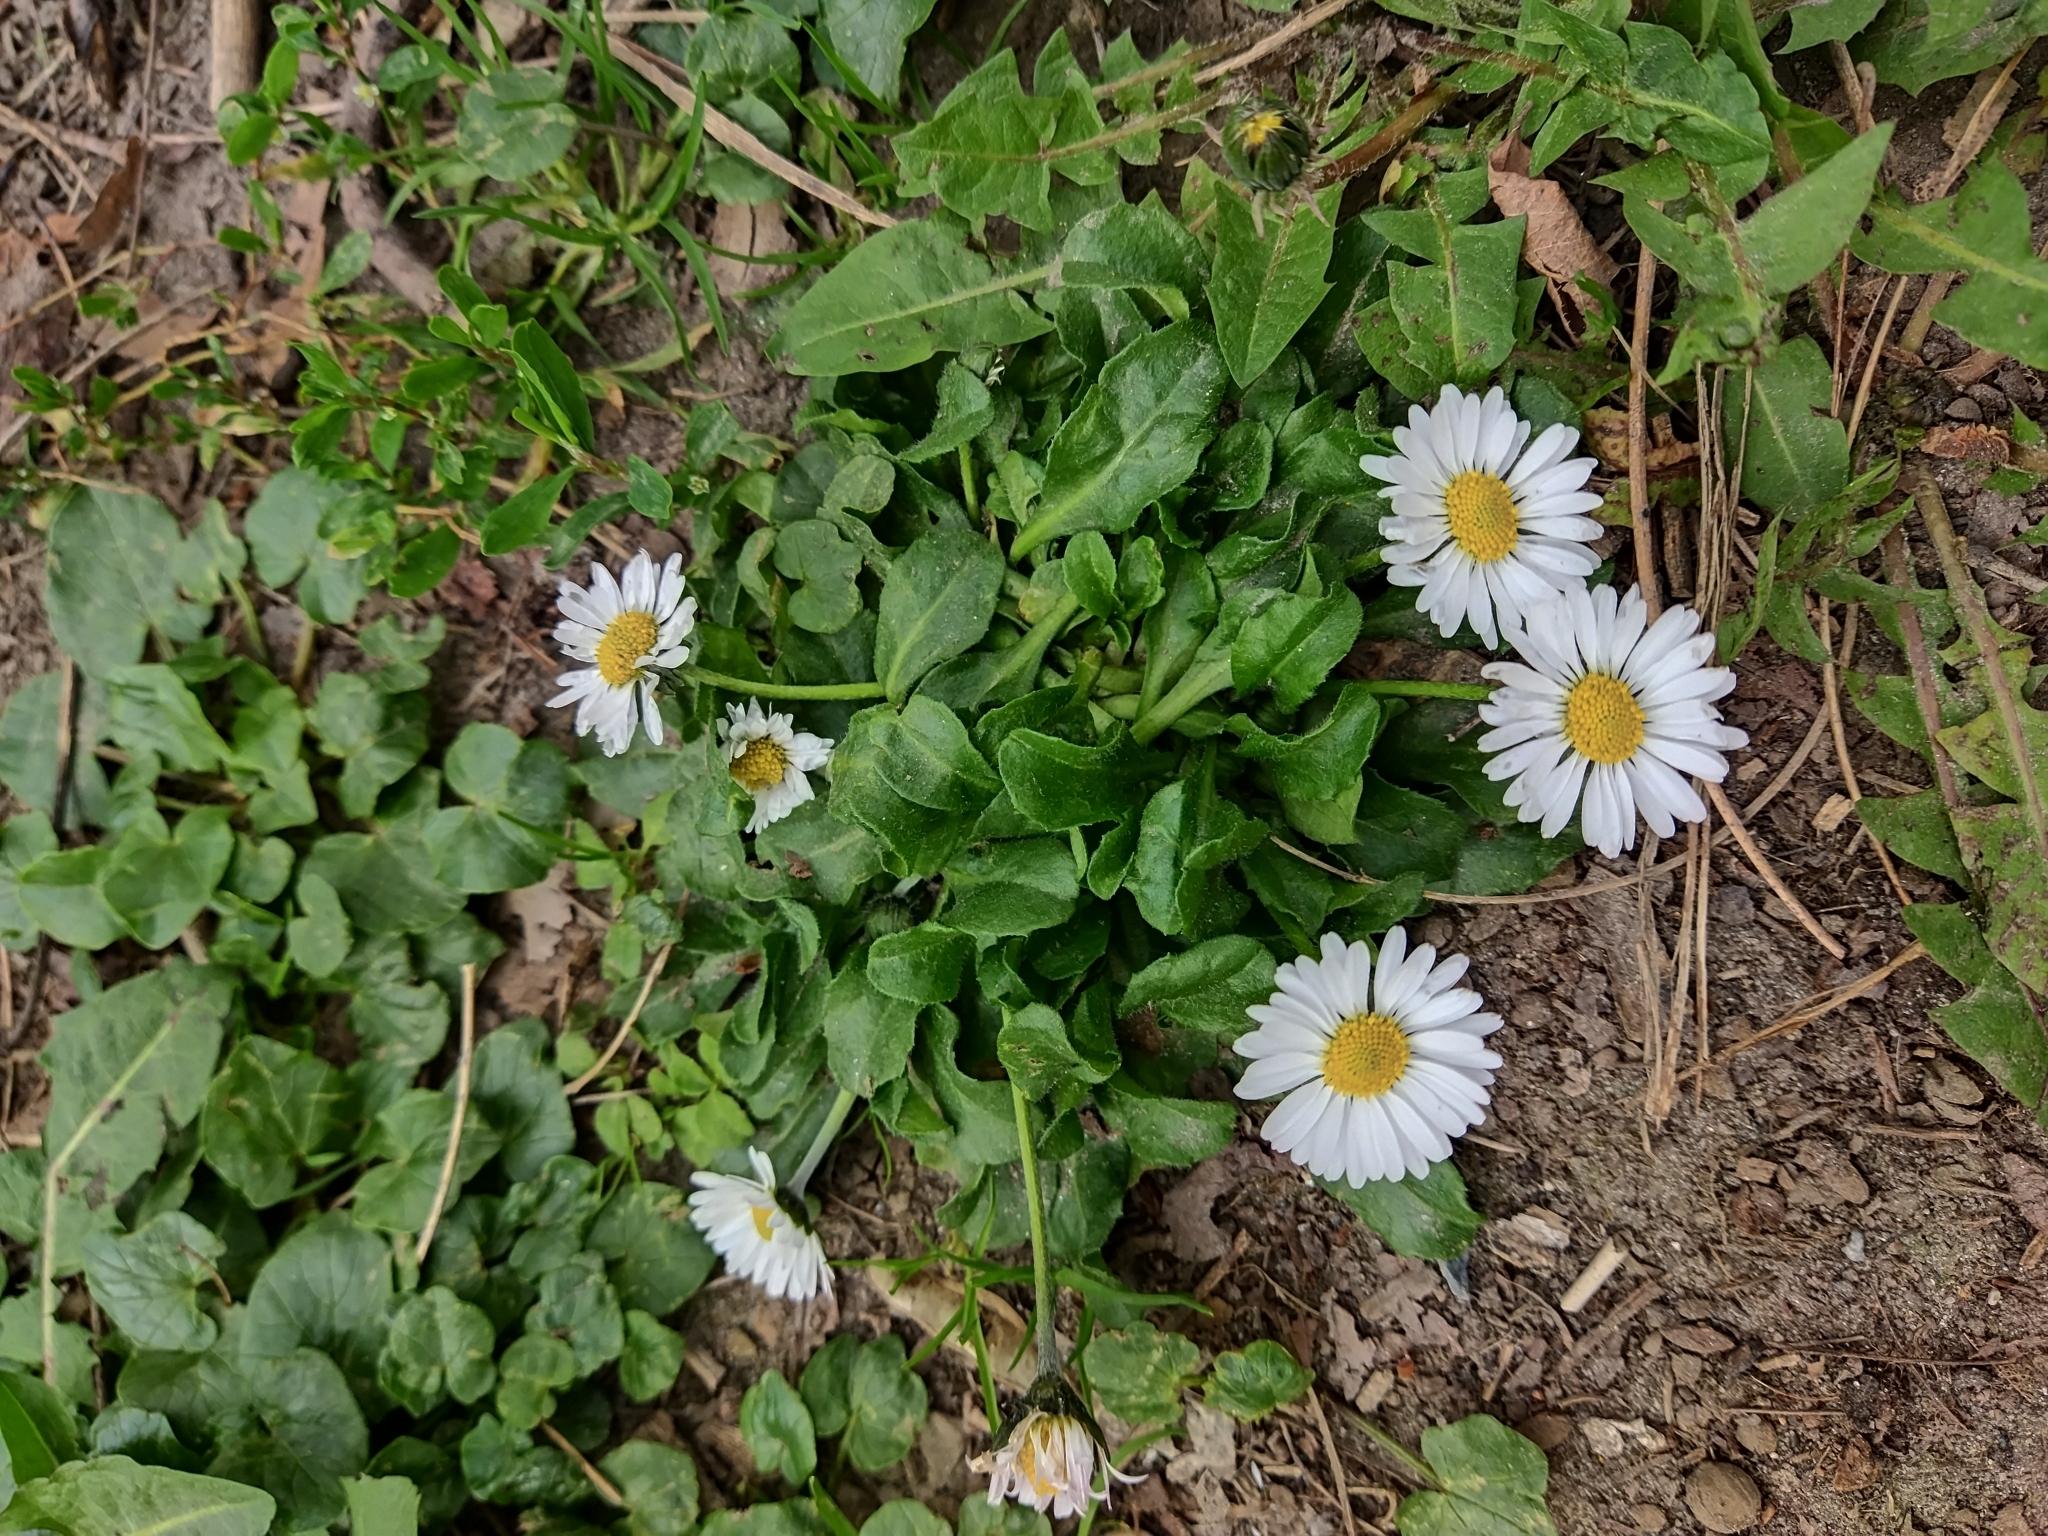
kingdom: Plantae
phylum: Tracheophyta
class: Magnoliopsida
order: Asterales
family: Asteraceae
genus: Bellis
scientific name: Bellis perennis
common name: Lawndaisy
